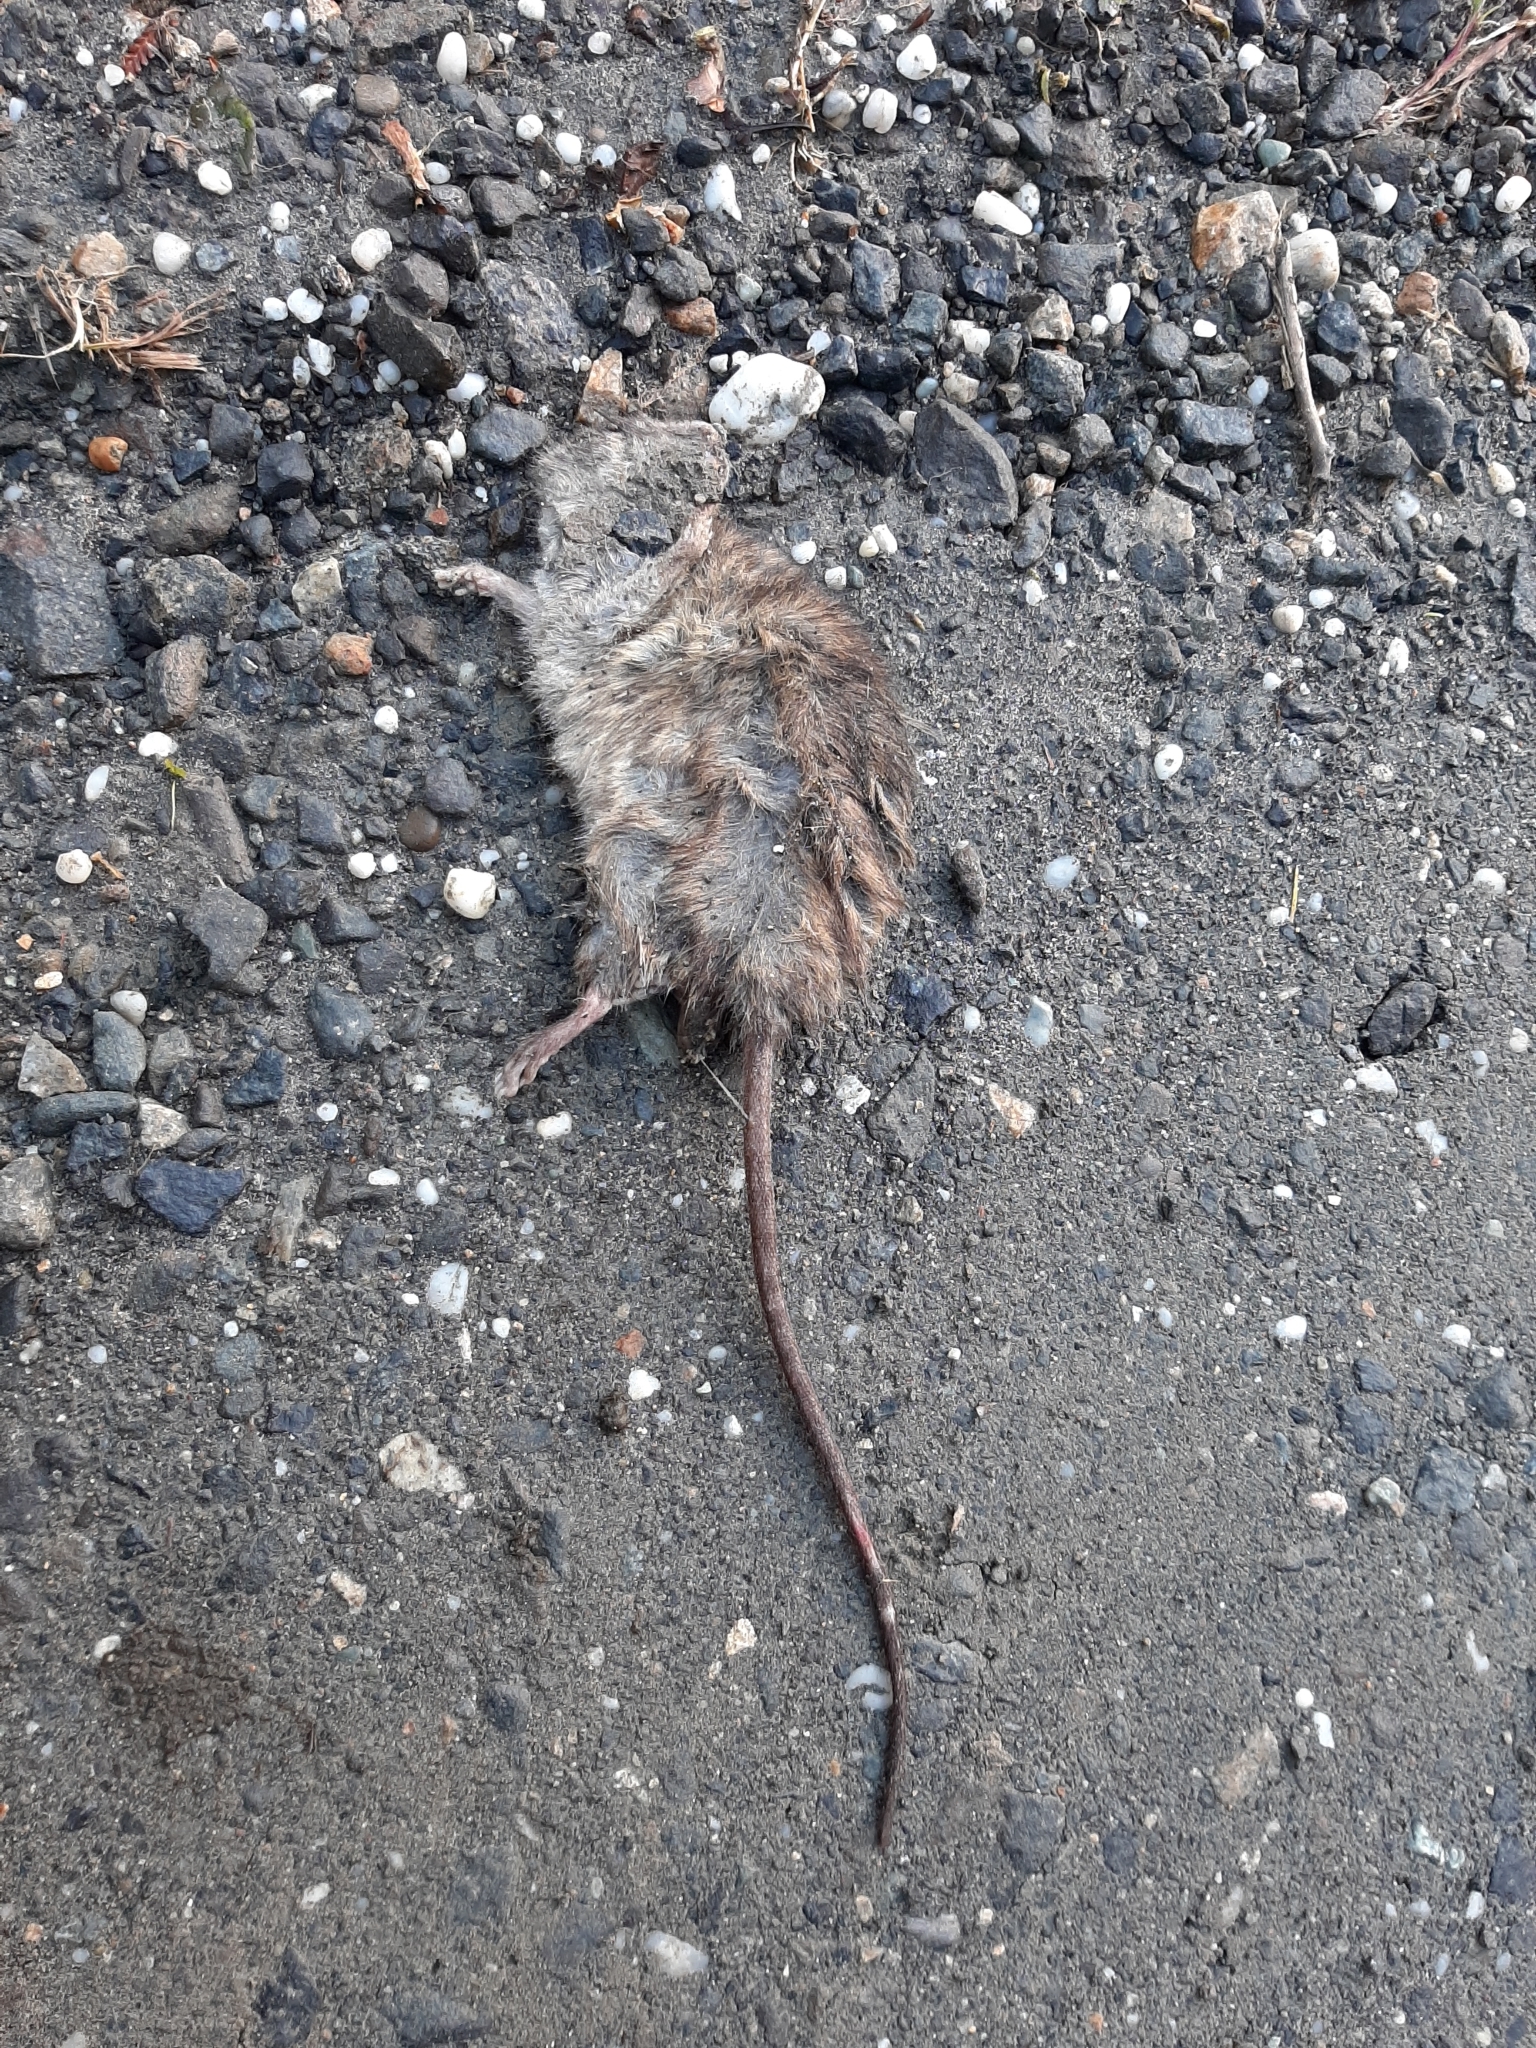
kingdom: Animalia
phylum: Chordata
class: Mammalia
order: Rodentia
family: Muridae
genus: Rattus
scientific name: Rattus rattus
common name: Black rat
